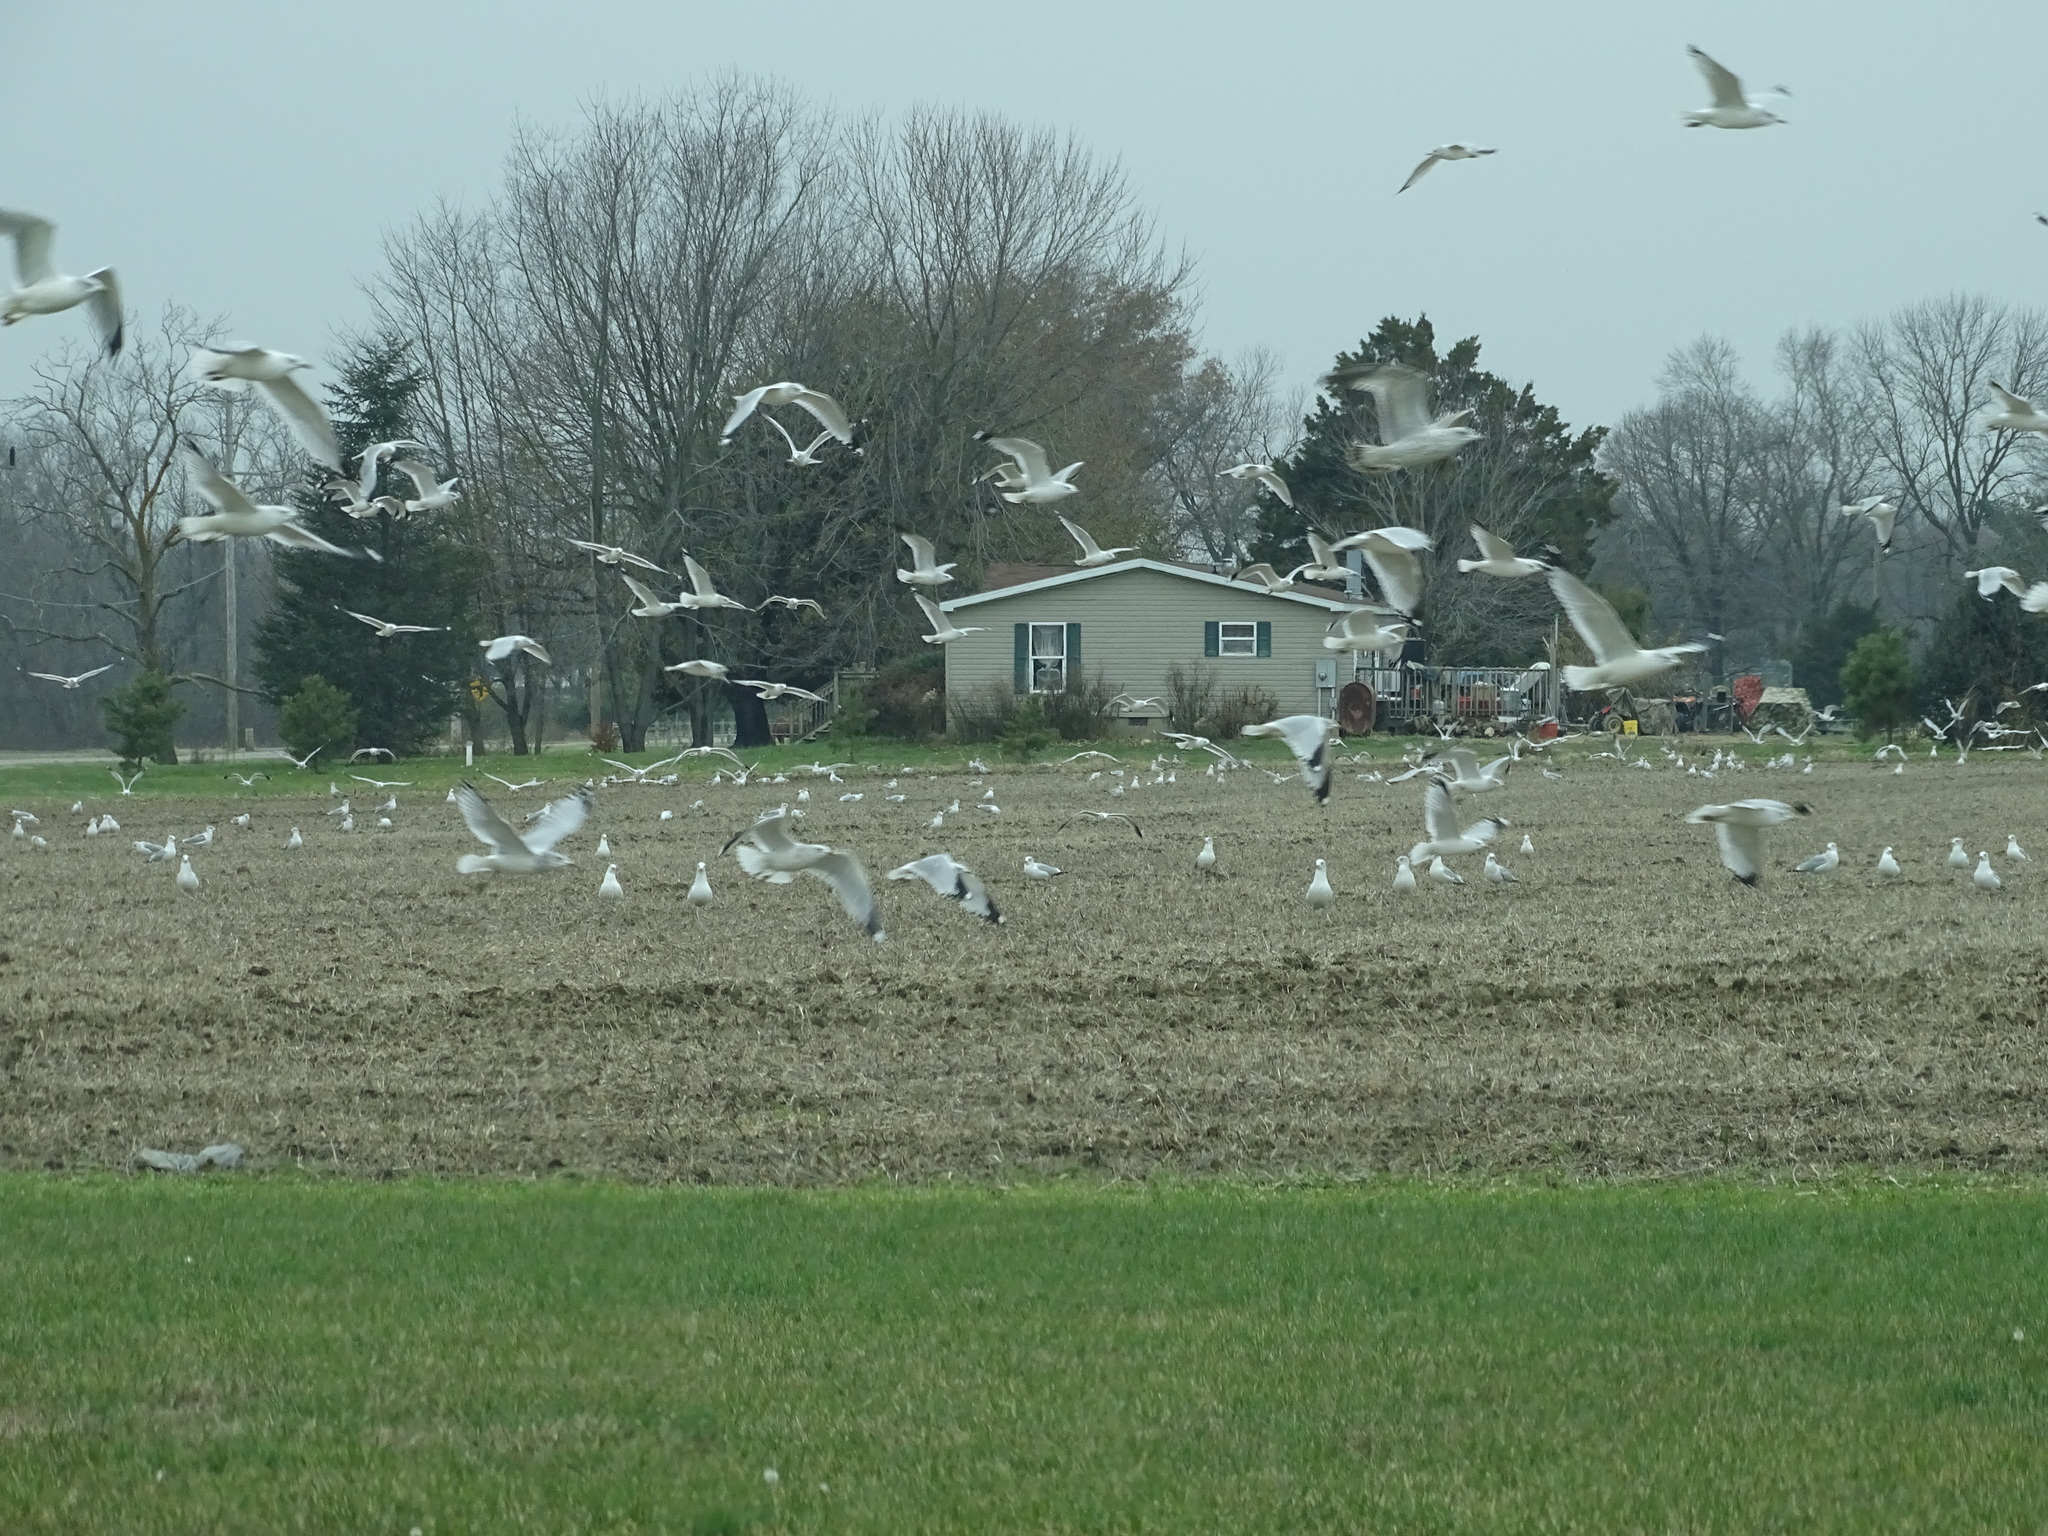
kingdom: Animalia
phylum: Chordata
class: Aves
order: Charadriiformes
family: Laridae
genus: Larus
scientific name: Larus delawarensis
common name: Ring-billed gull
